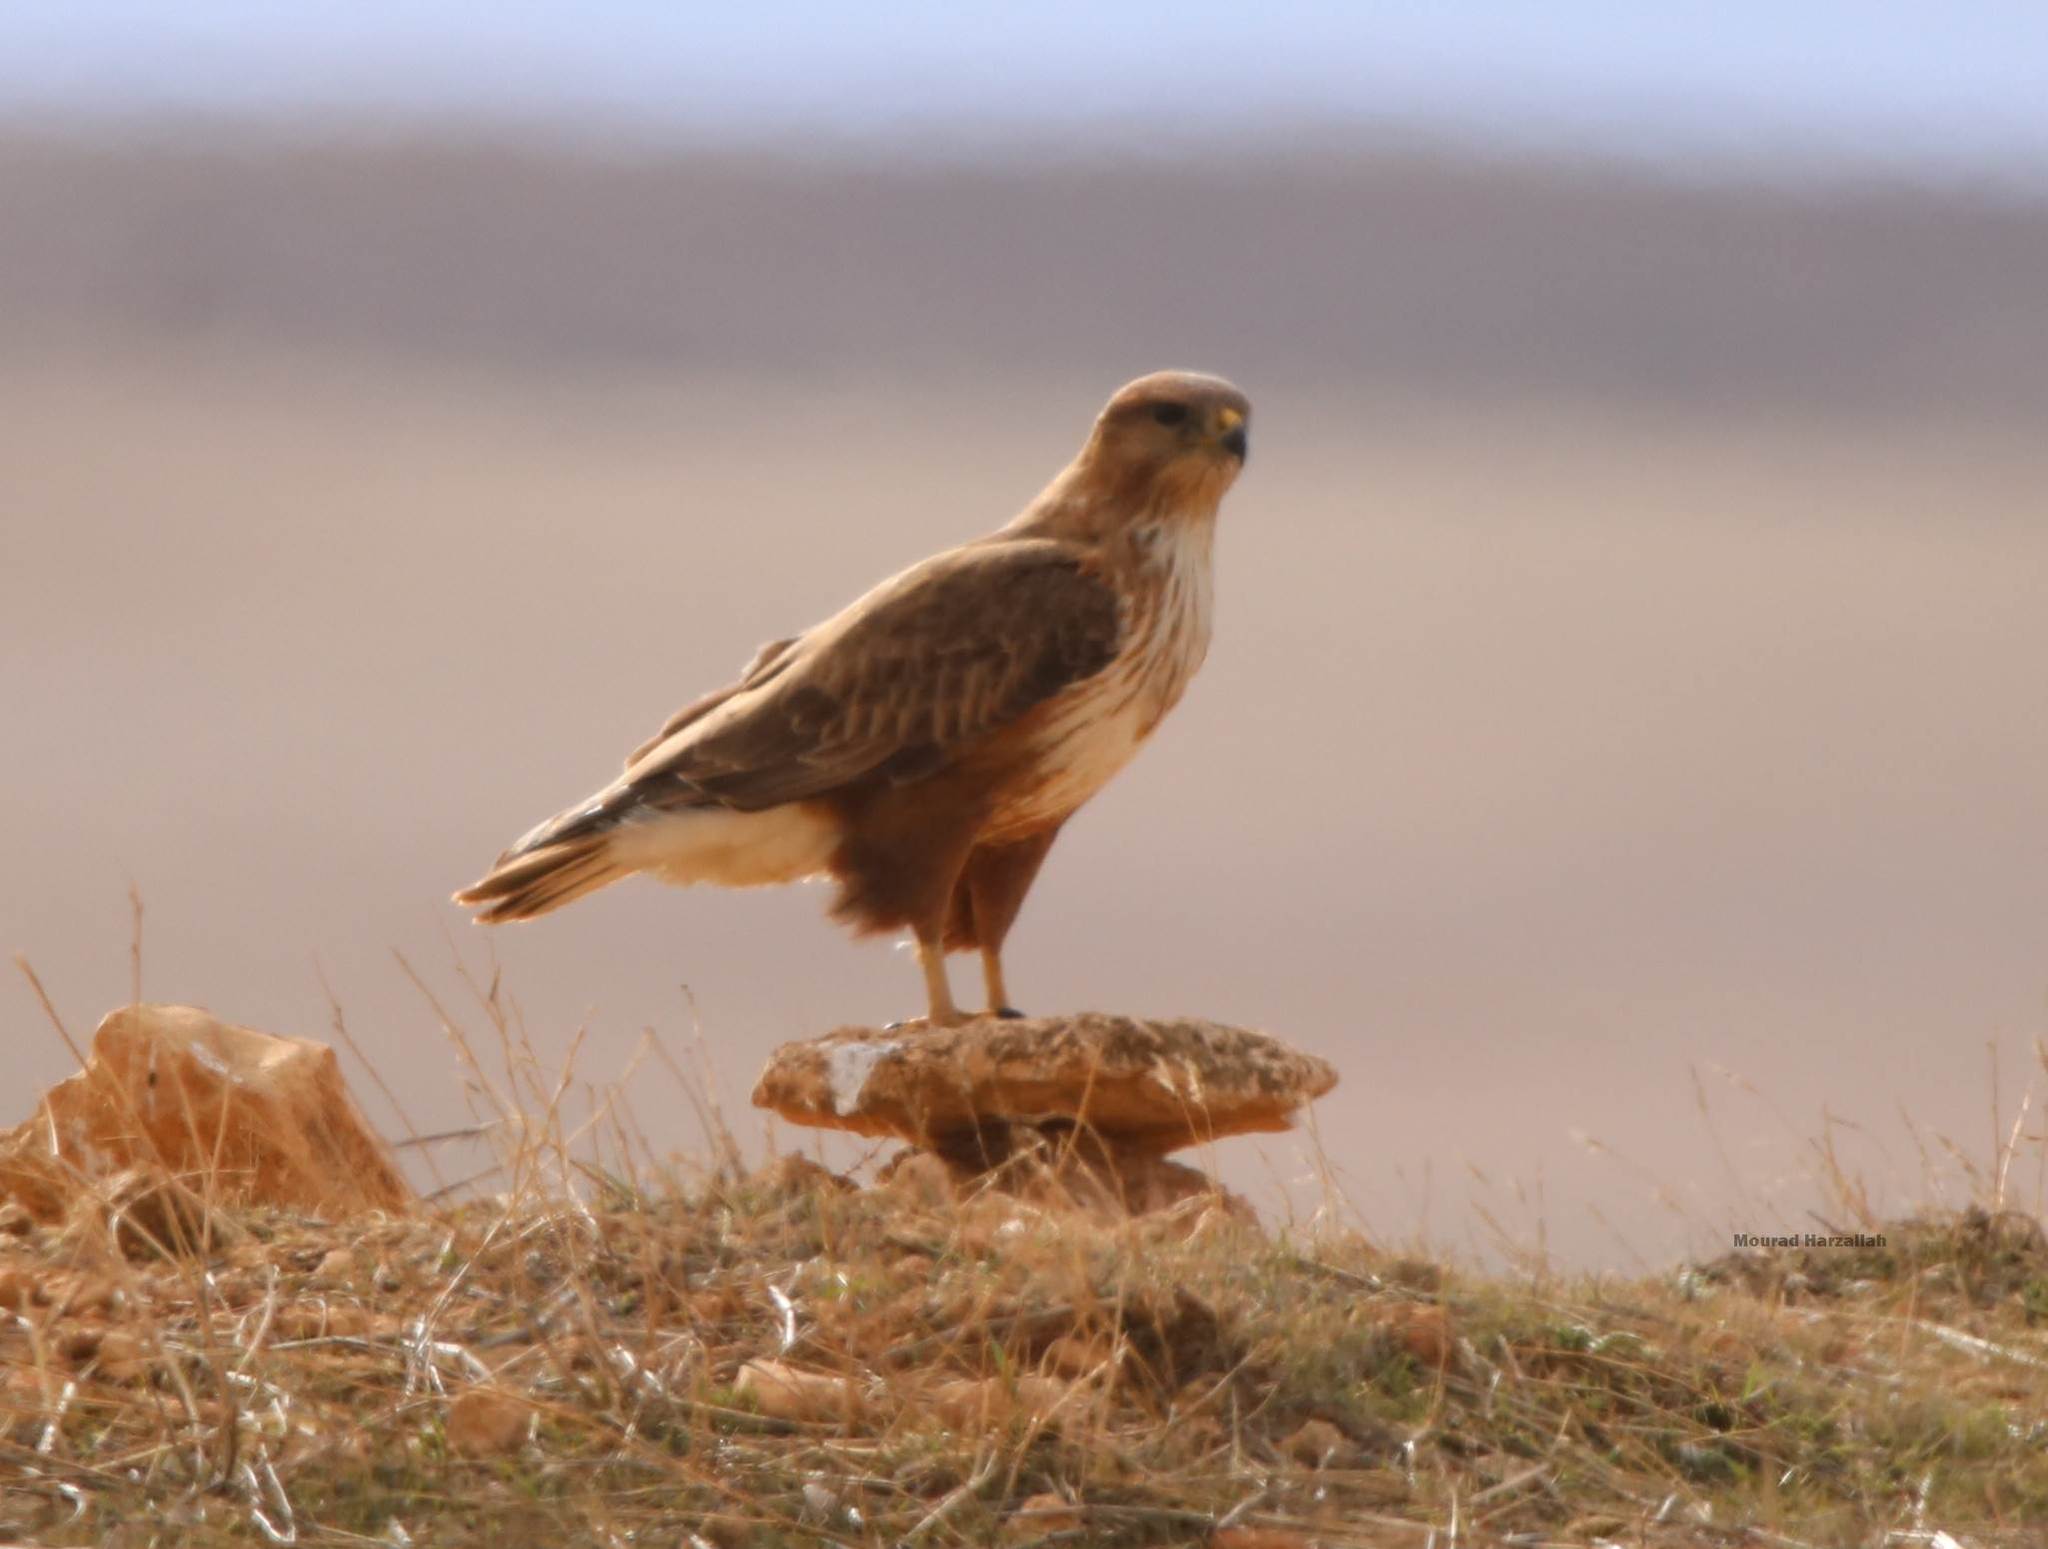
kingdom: Animalia
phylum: Chordata
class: Aves
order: Accipitriformes
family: Accipitridae
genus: Buteo
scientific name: Buteo rufinus
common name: Long-legged buzzard
